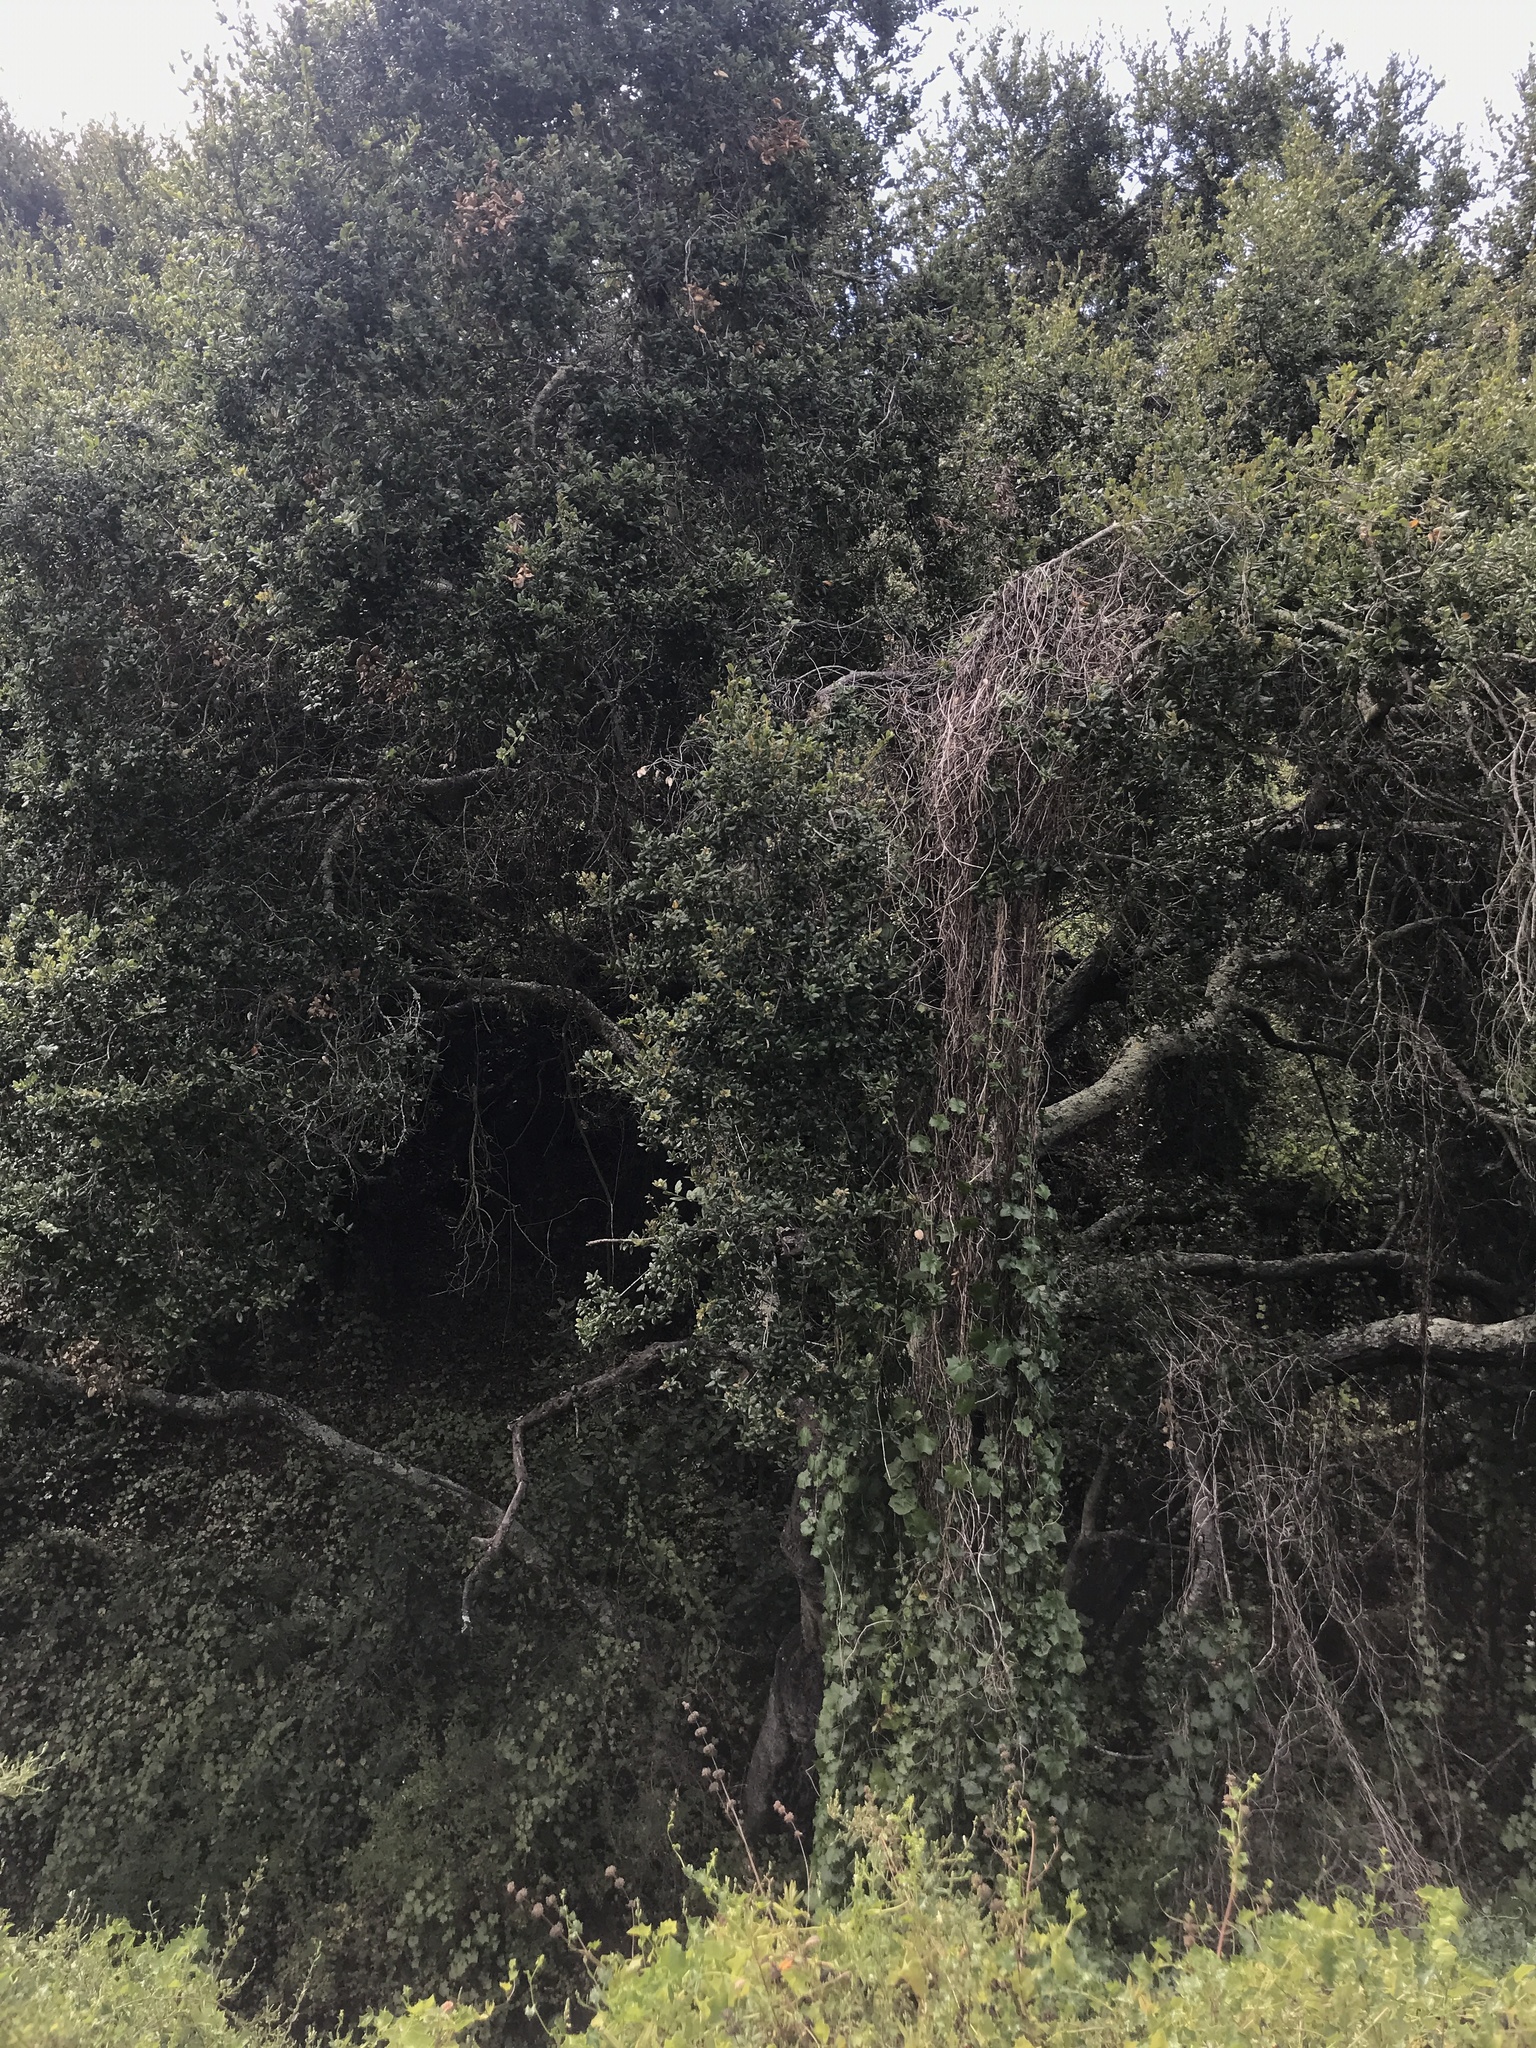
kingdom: Plantae
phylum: Tracheophyta
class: Magnoliopsida
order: Fagales
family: Fagaceae
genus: Quercus
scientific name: Quercus agrifolia
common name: California live oak
